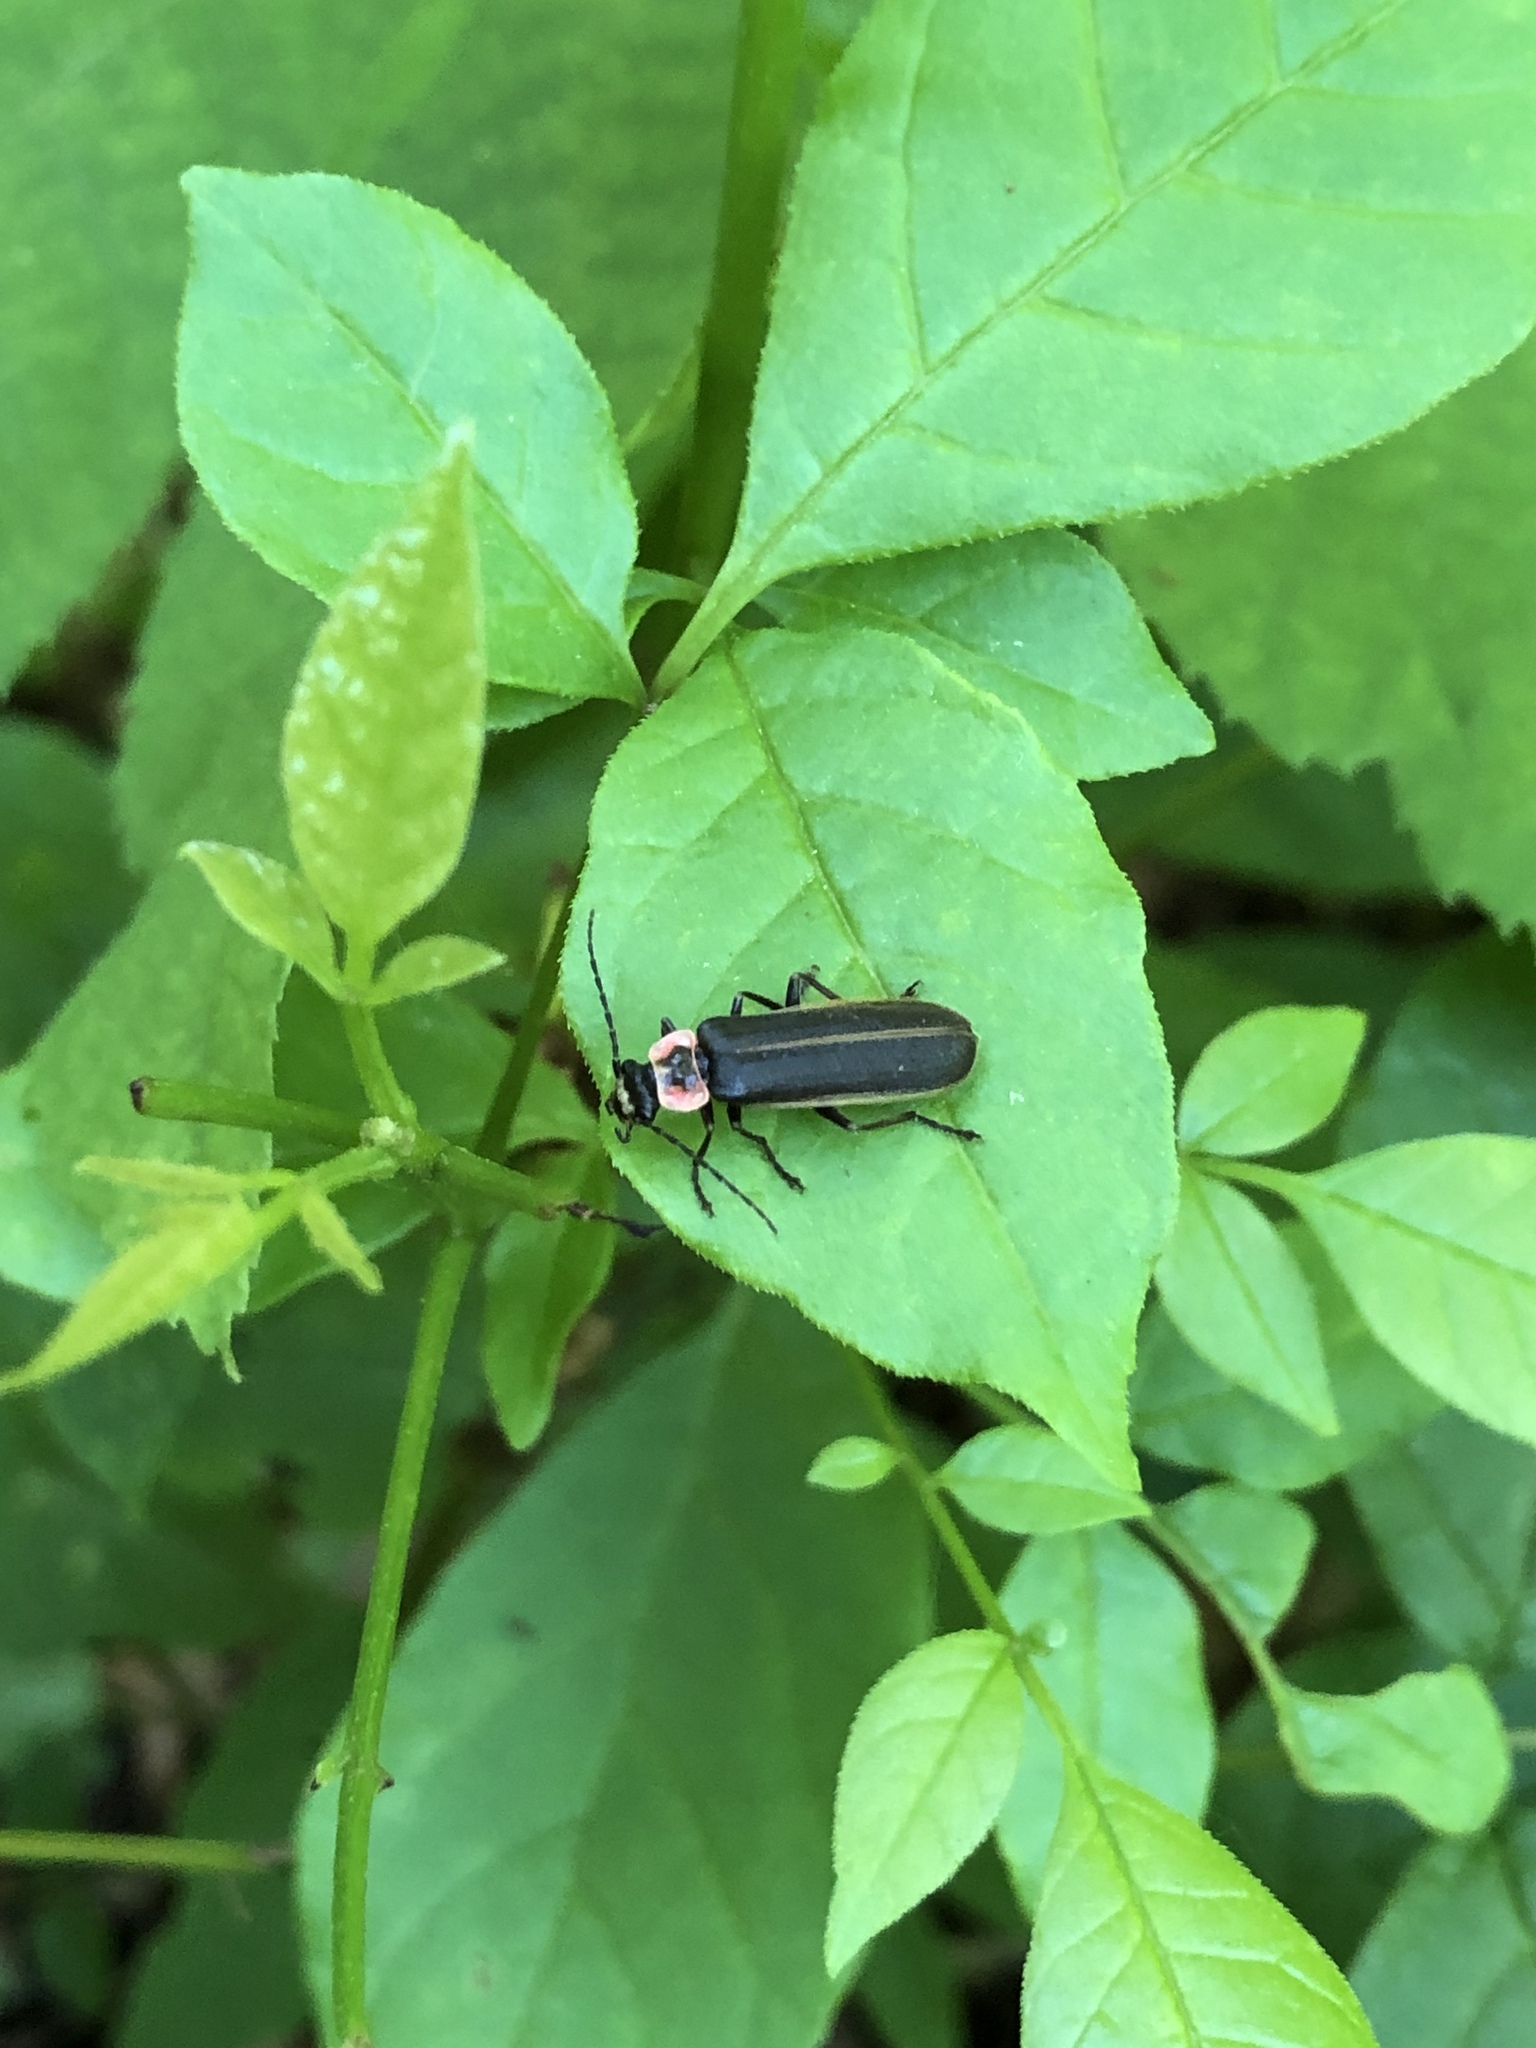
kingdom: Animalia
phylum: Arthropoda
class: Insecta
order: Coleoptera
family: Cantharidae
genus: Podabrus
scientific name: Podabrus brevicollis
